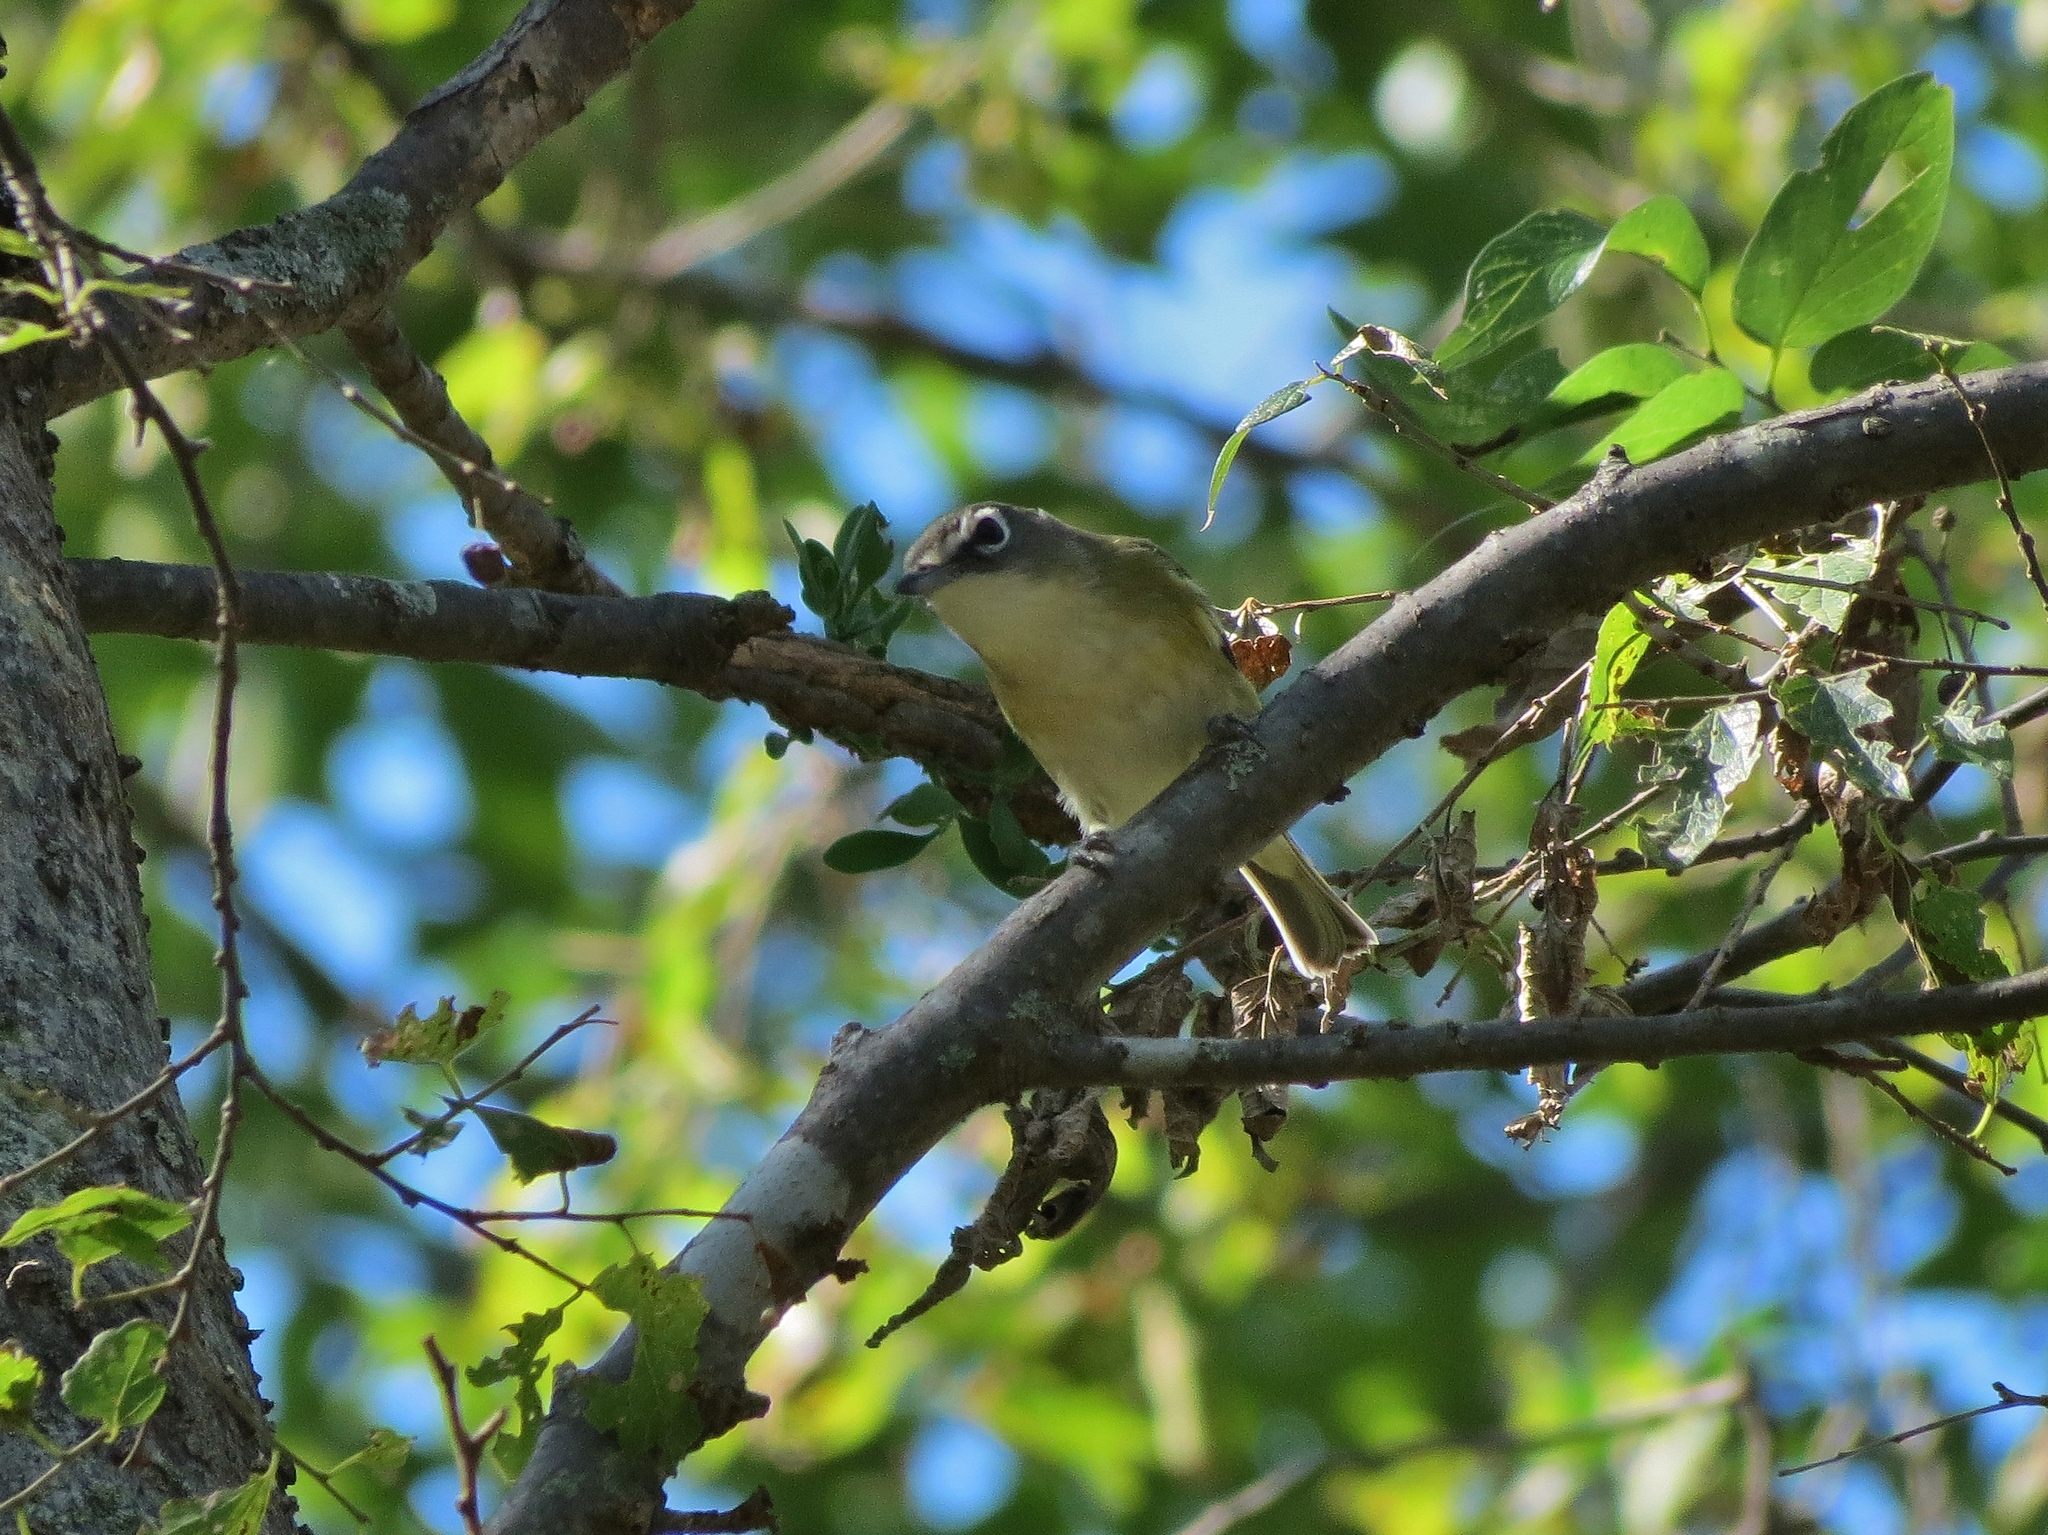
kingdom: Animalia
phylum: Chordata
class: Aves
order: Passeriformes
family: Vireonidae
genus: Vireo
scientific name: Vireo solitarius
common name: Blue-headed vireo
